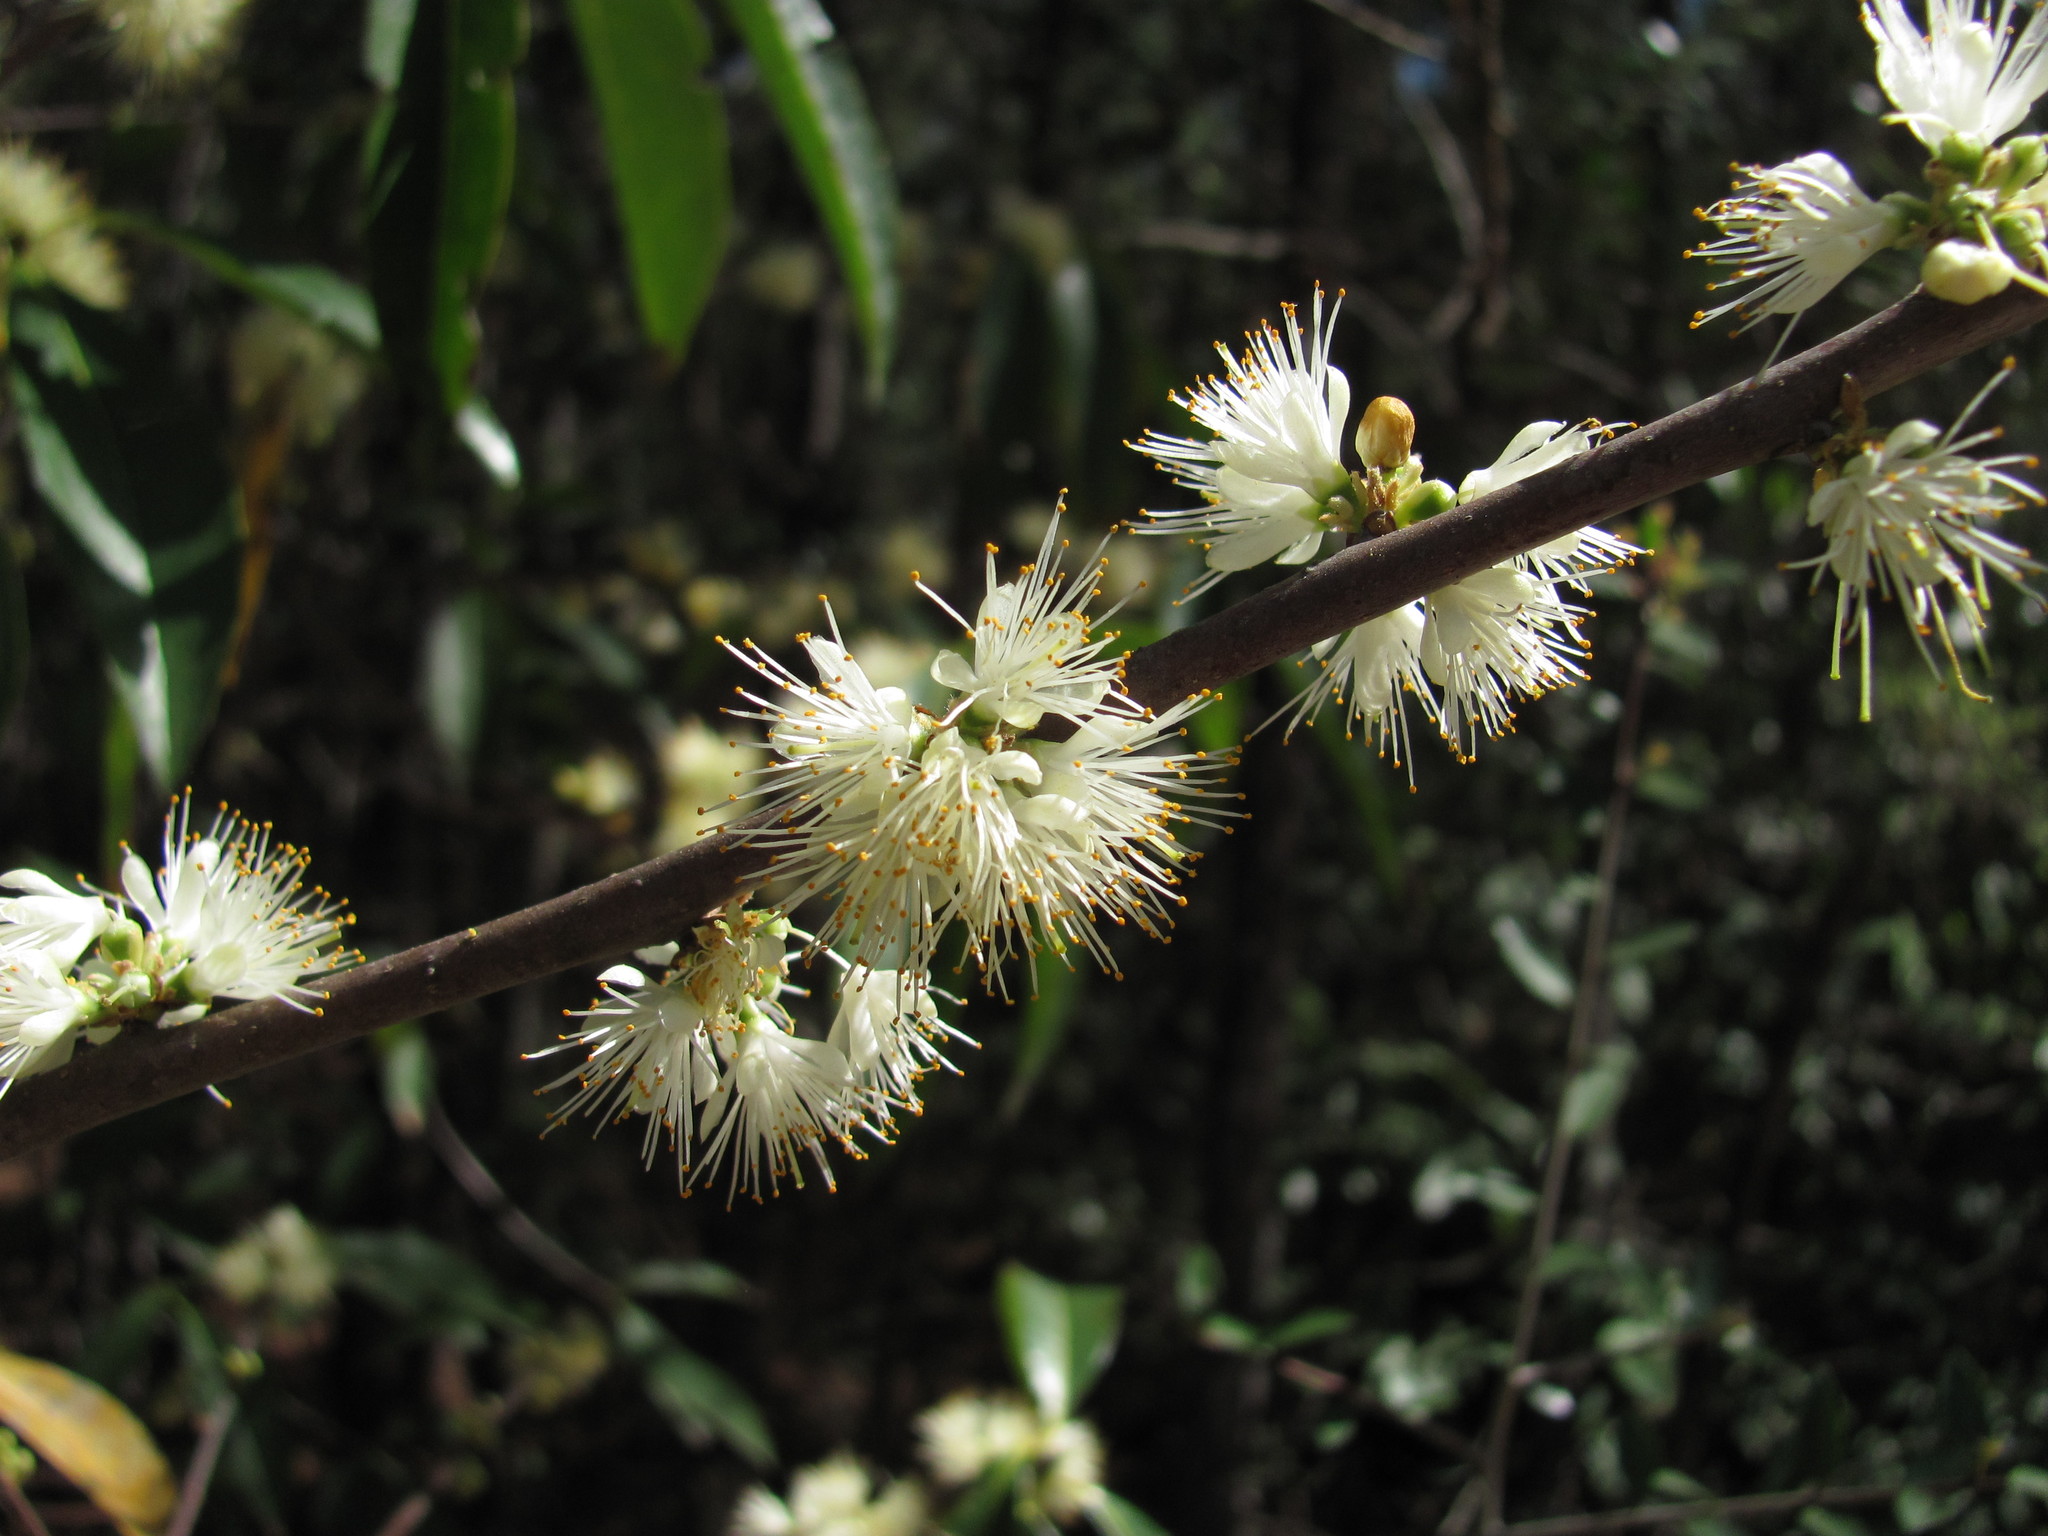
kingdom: Plantae
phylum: Tracheophyta
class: Magnoliopsida
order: Ericales
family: Symplocaceae
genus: Symplocos
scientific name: Symplocos tinctoria
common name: Horse-sugar
